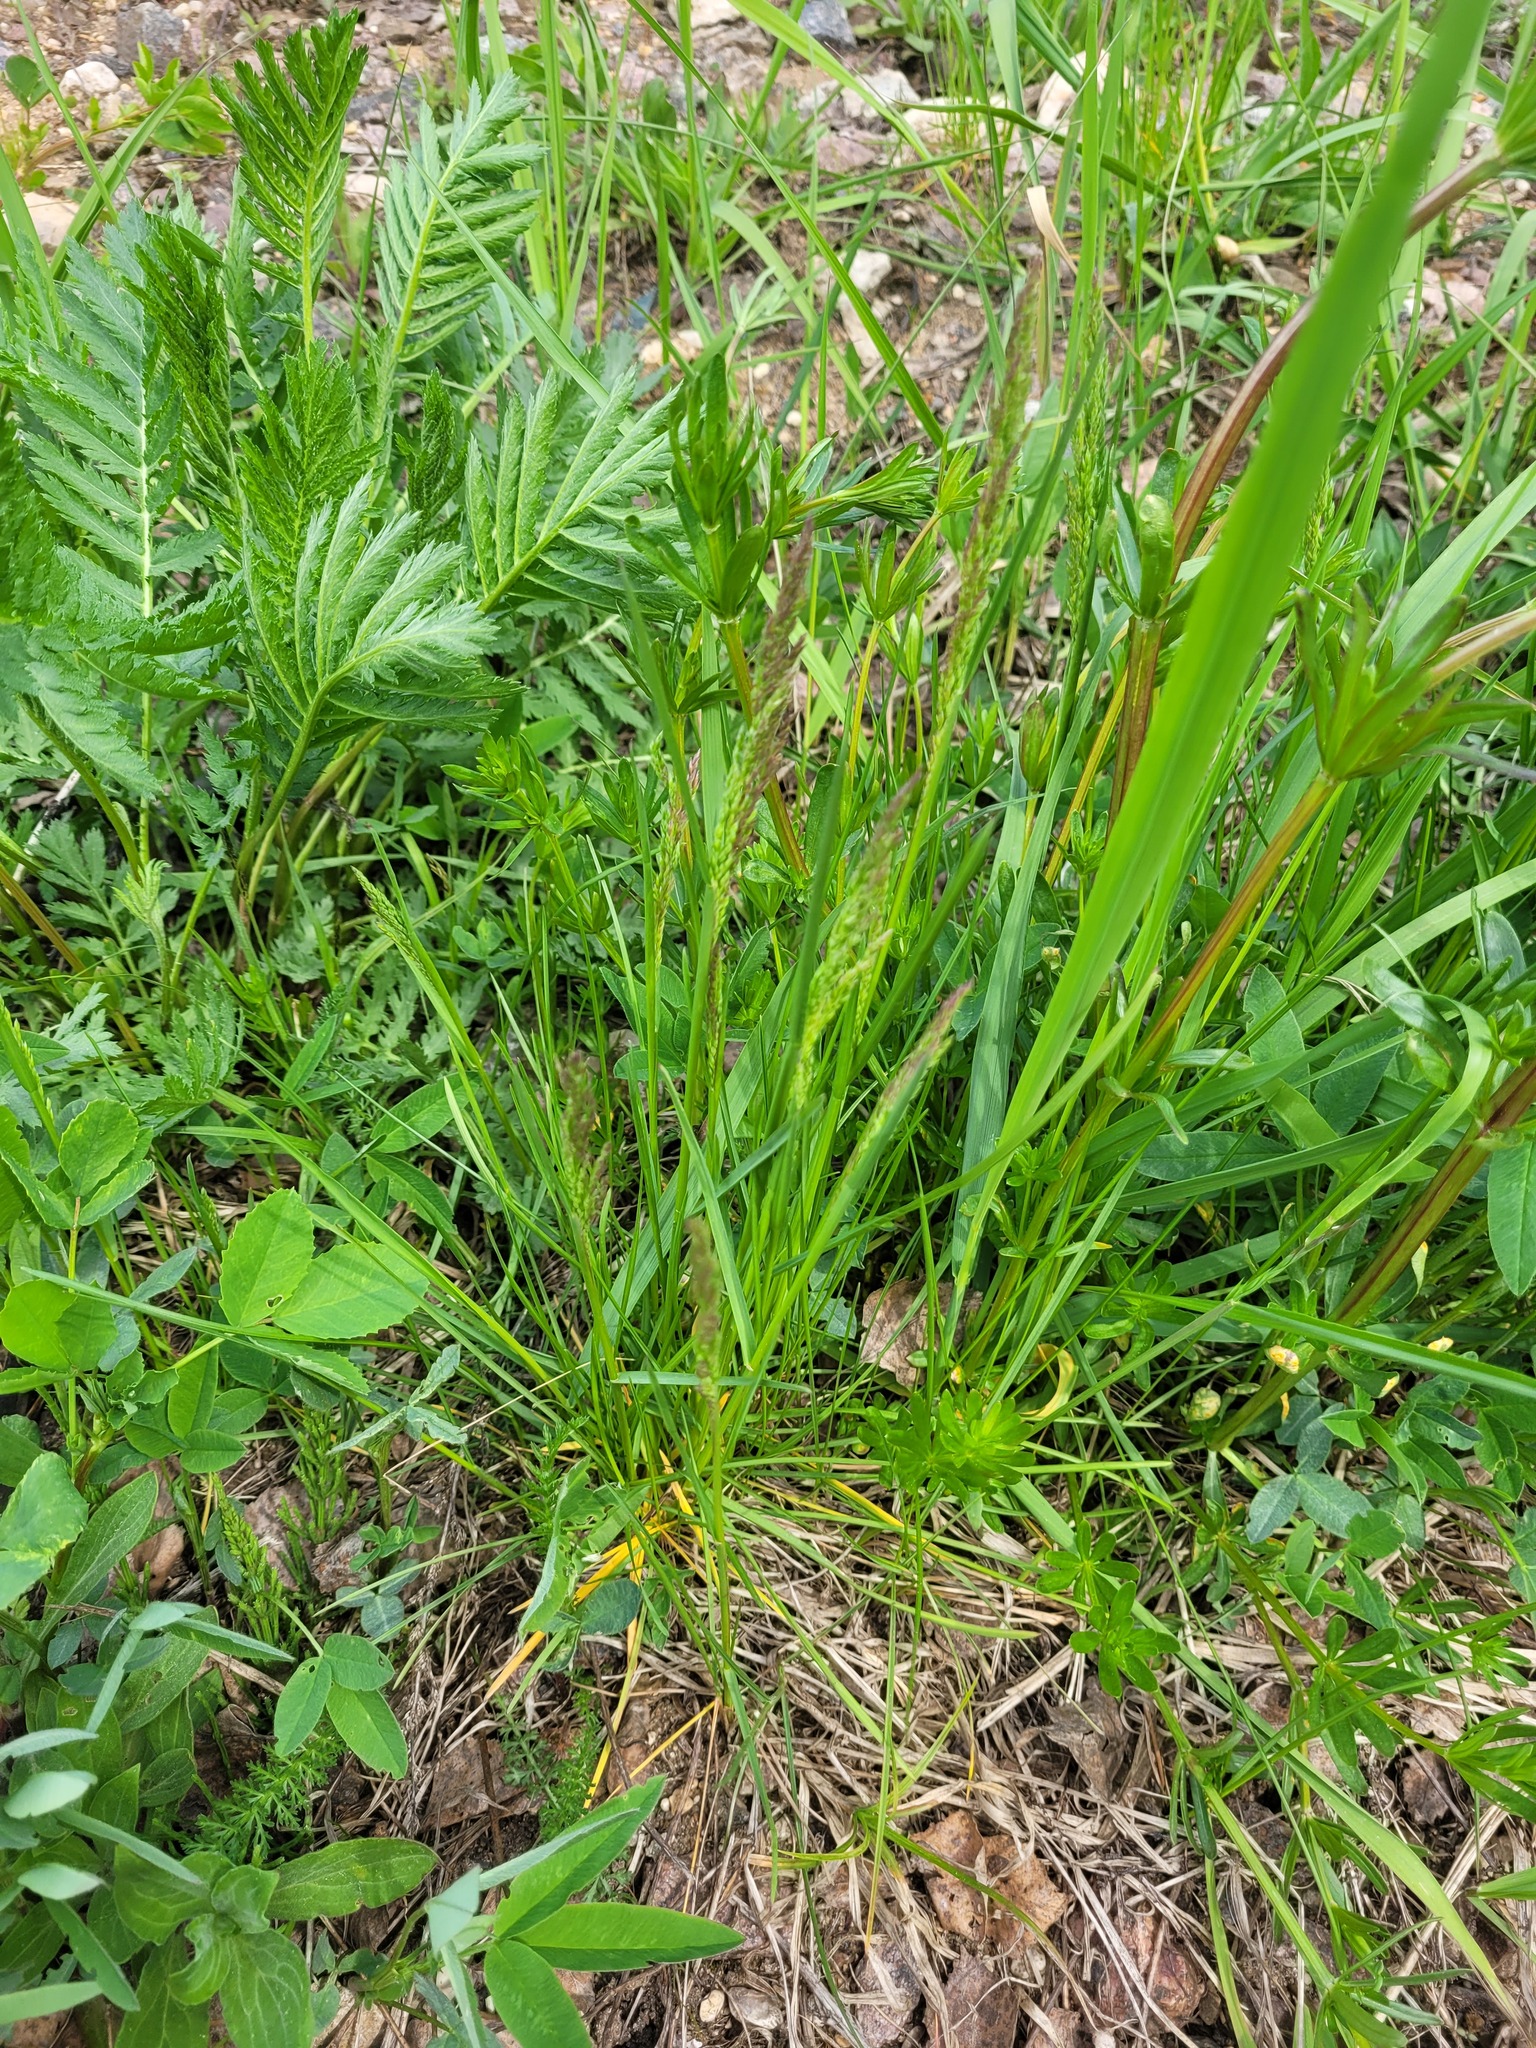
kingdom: Plantae
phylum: Tracheophyta
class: Liliopsida
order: Poales
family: Poaceae
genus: Poa
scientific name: Poa pratensis
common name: Kentucky bluegrass
